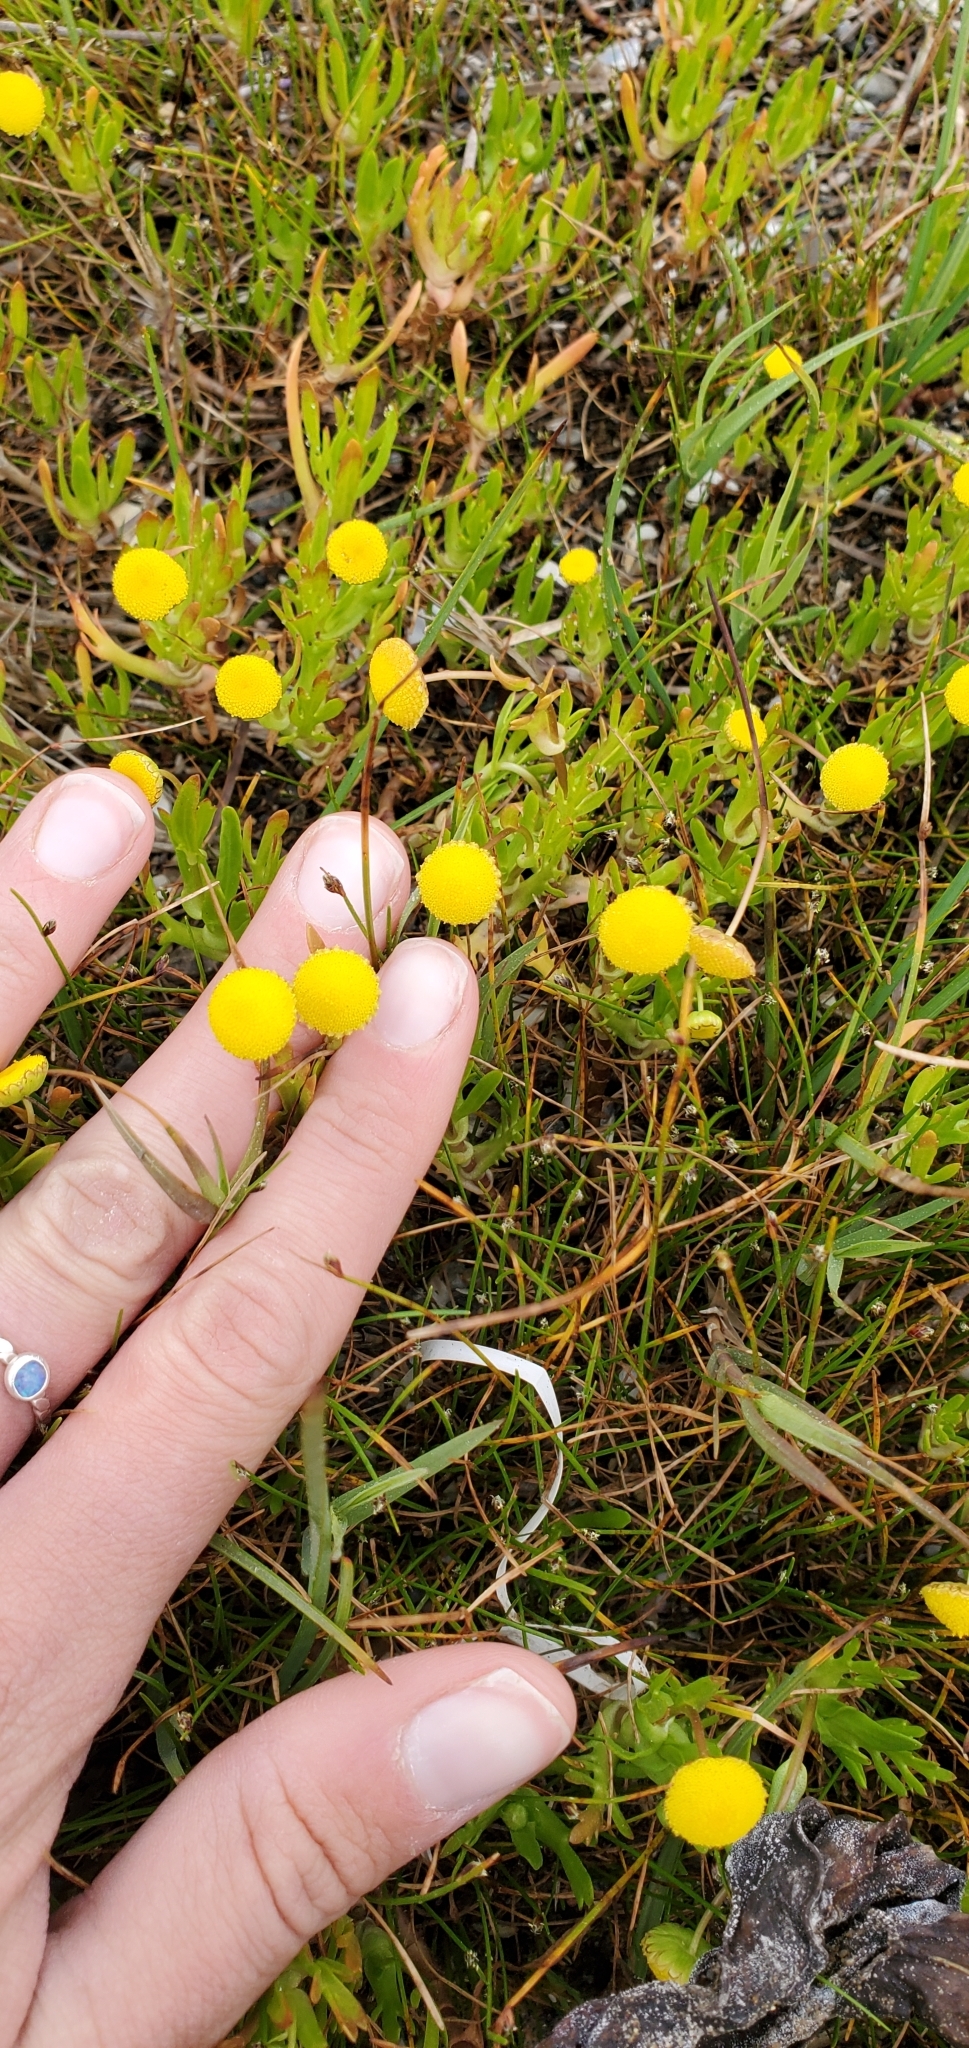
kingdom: Plantae
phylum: Tracheophyta
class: Magnoliopsida
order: Asterales
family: Asteraceae
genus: Cotula
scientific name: Cotula coronopifolia
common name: Buttonweed
